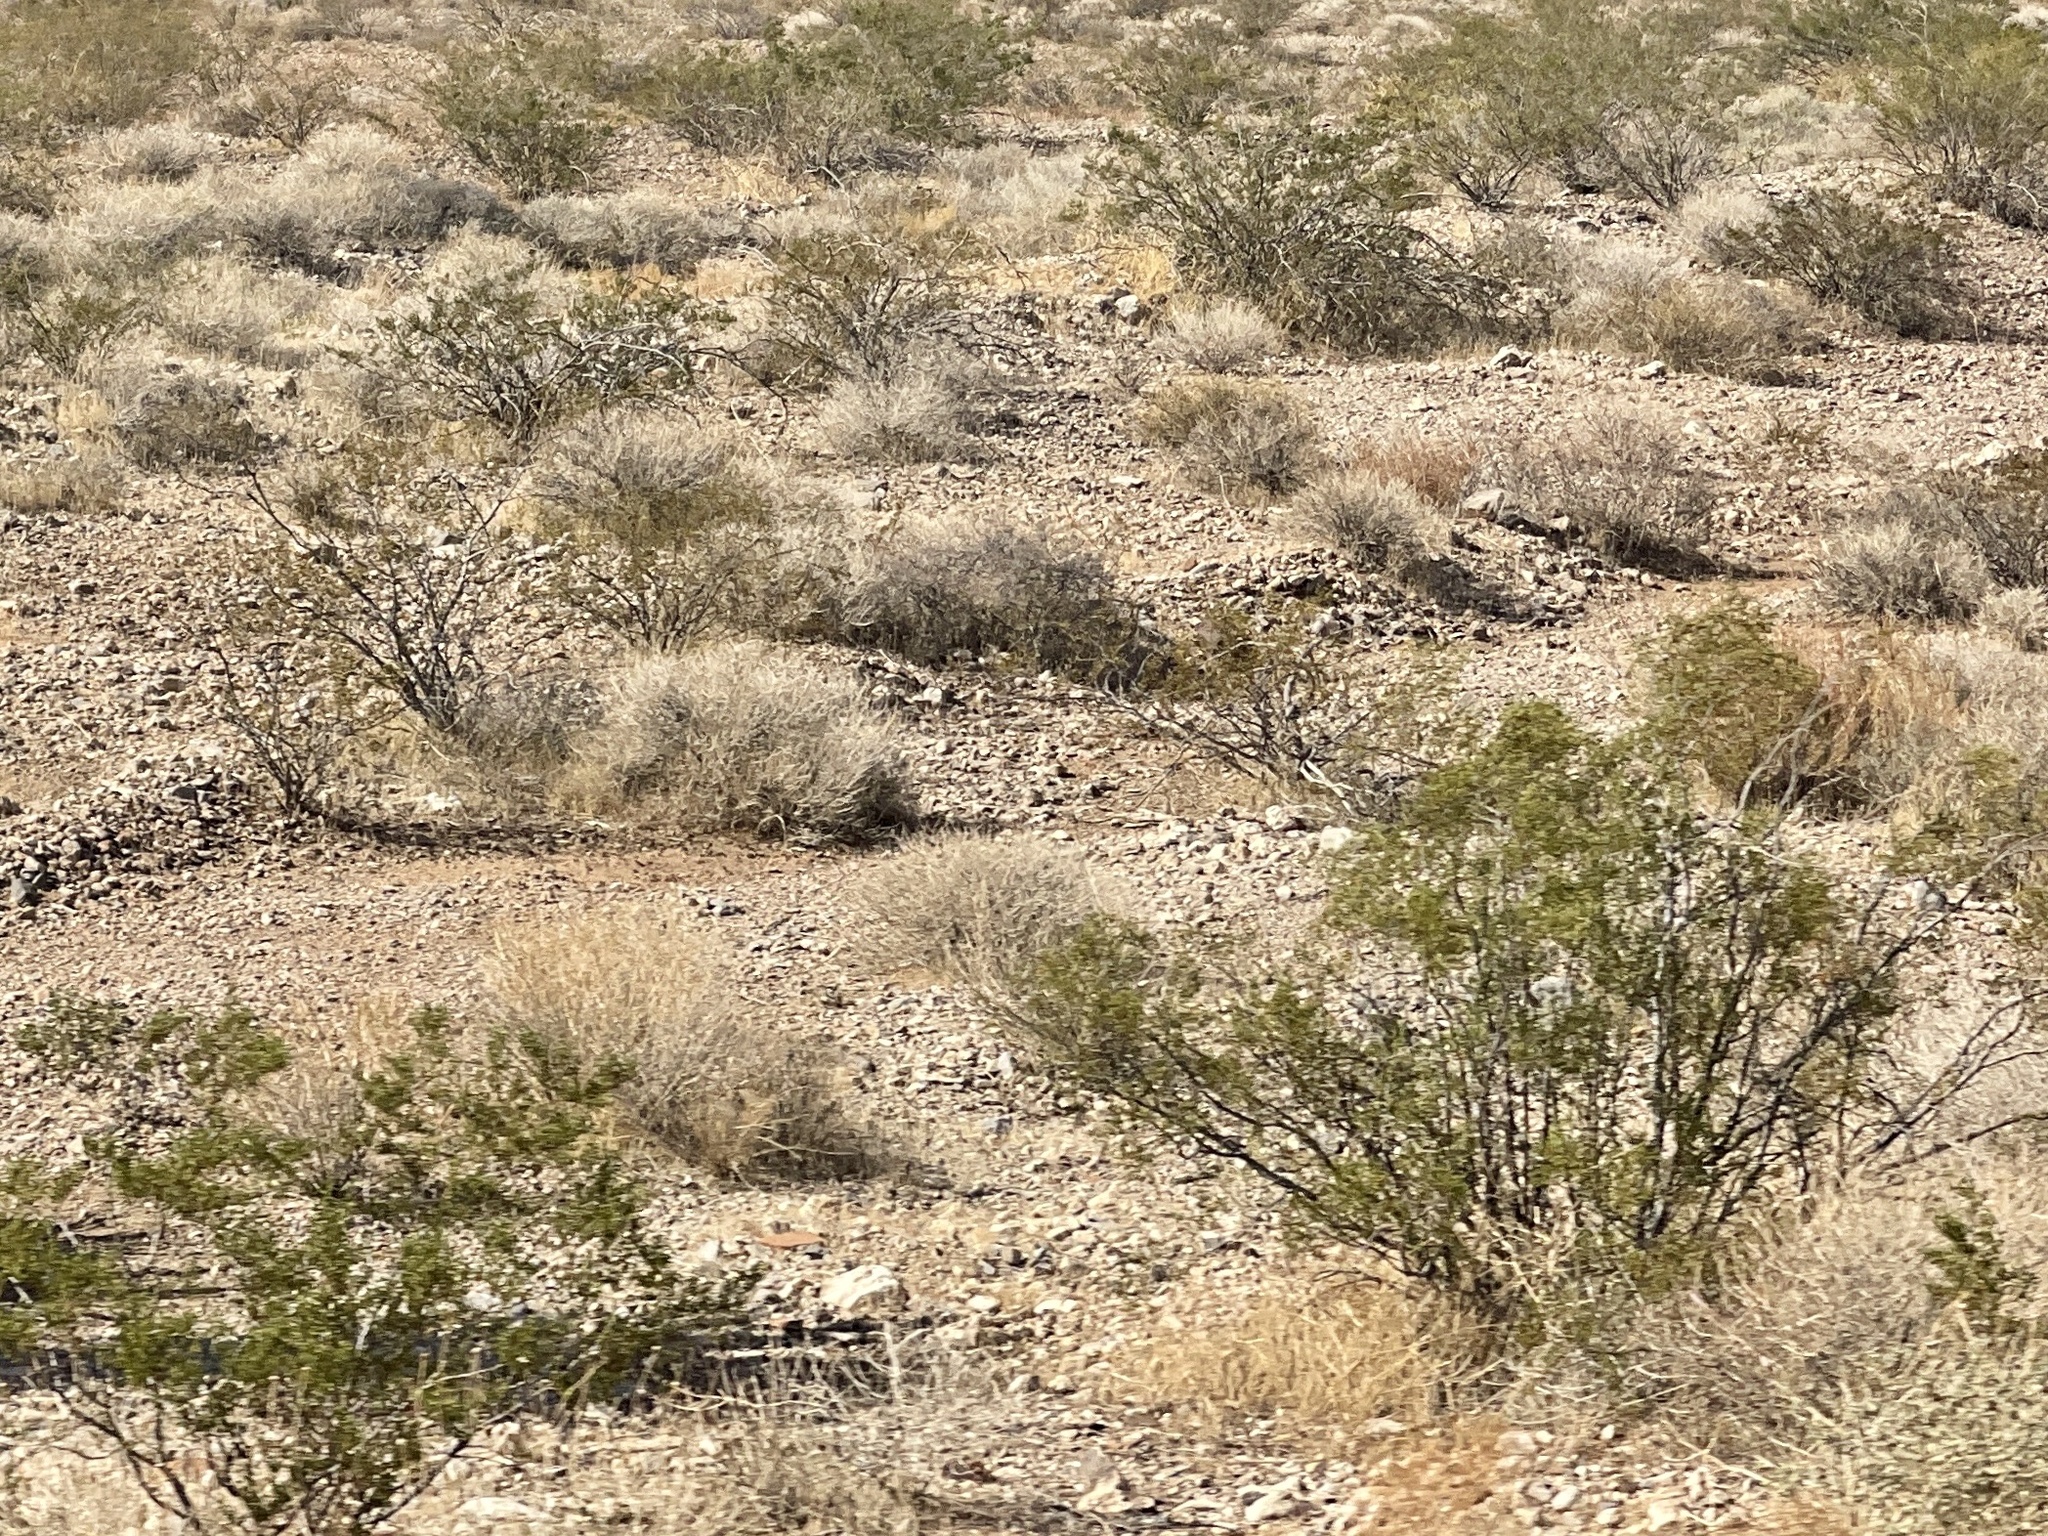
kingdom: Plantae
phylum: Tracheophyta
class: Magnoliopsida
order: Zygophyllales
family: Zygophyllaceae
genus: Larrea
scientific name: Larrea tridentata
